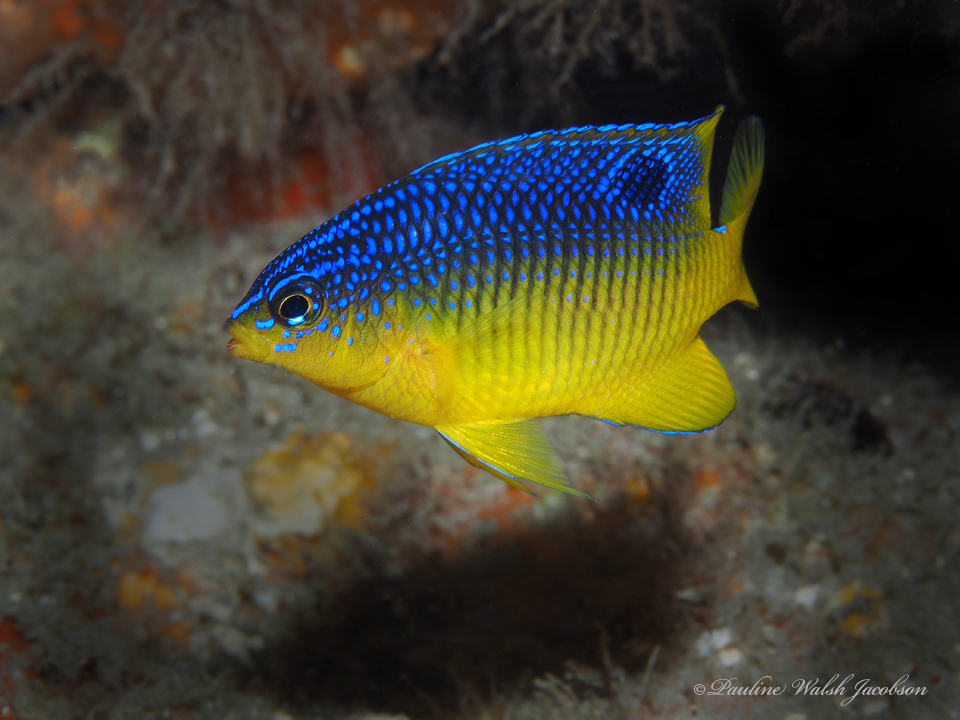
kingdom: Animalia
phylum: Chordata
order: Perciformes
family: Pomacentridae
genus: Stegastes
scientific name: Stegastes xanthurus
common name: Cocoa damselfish
